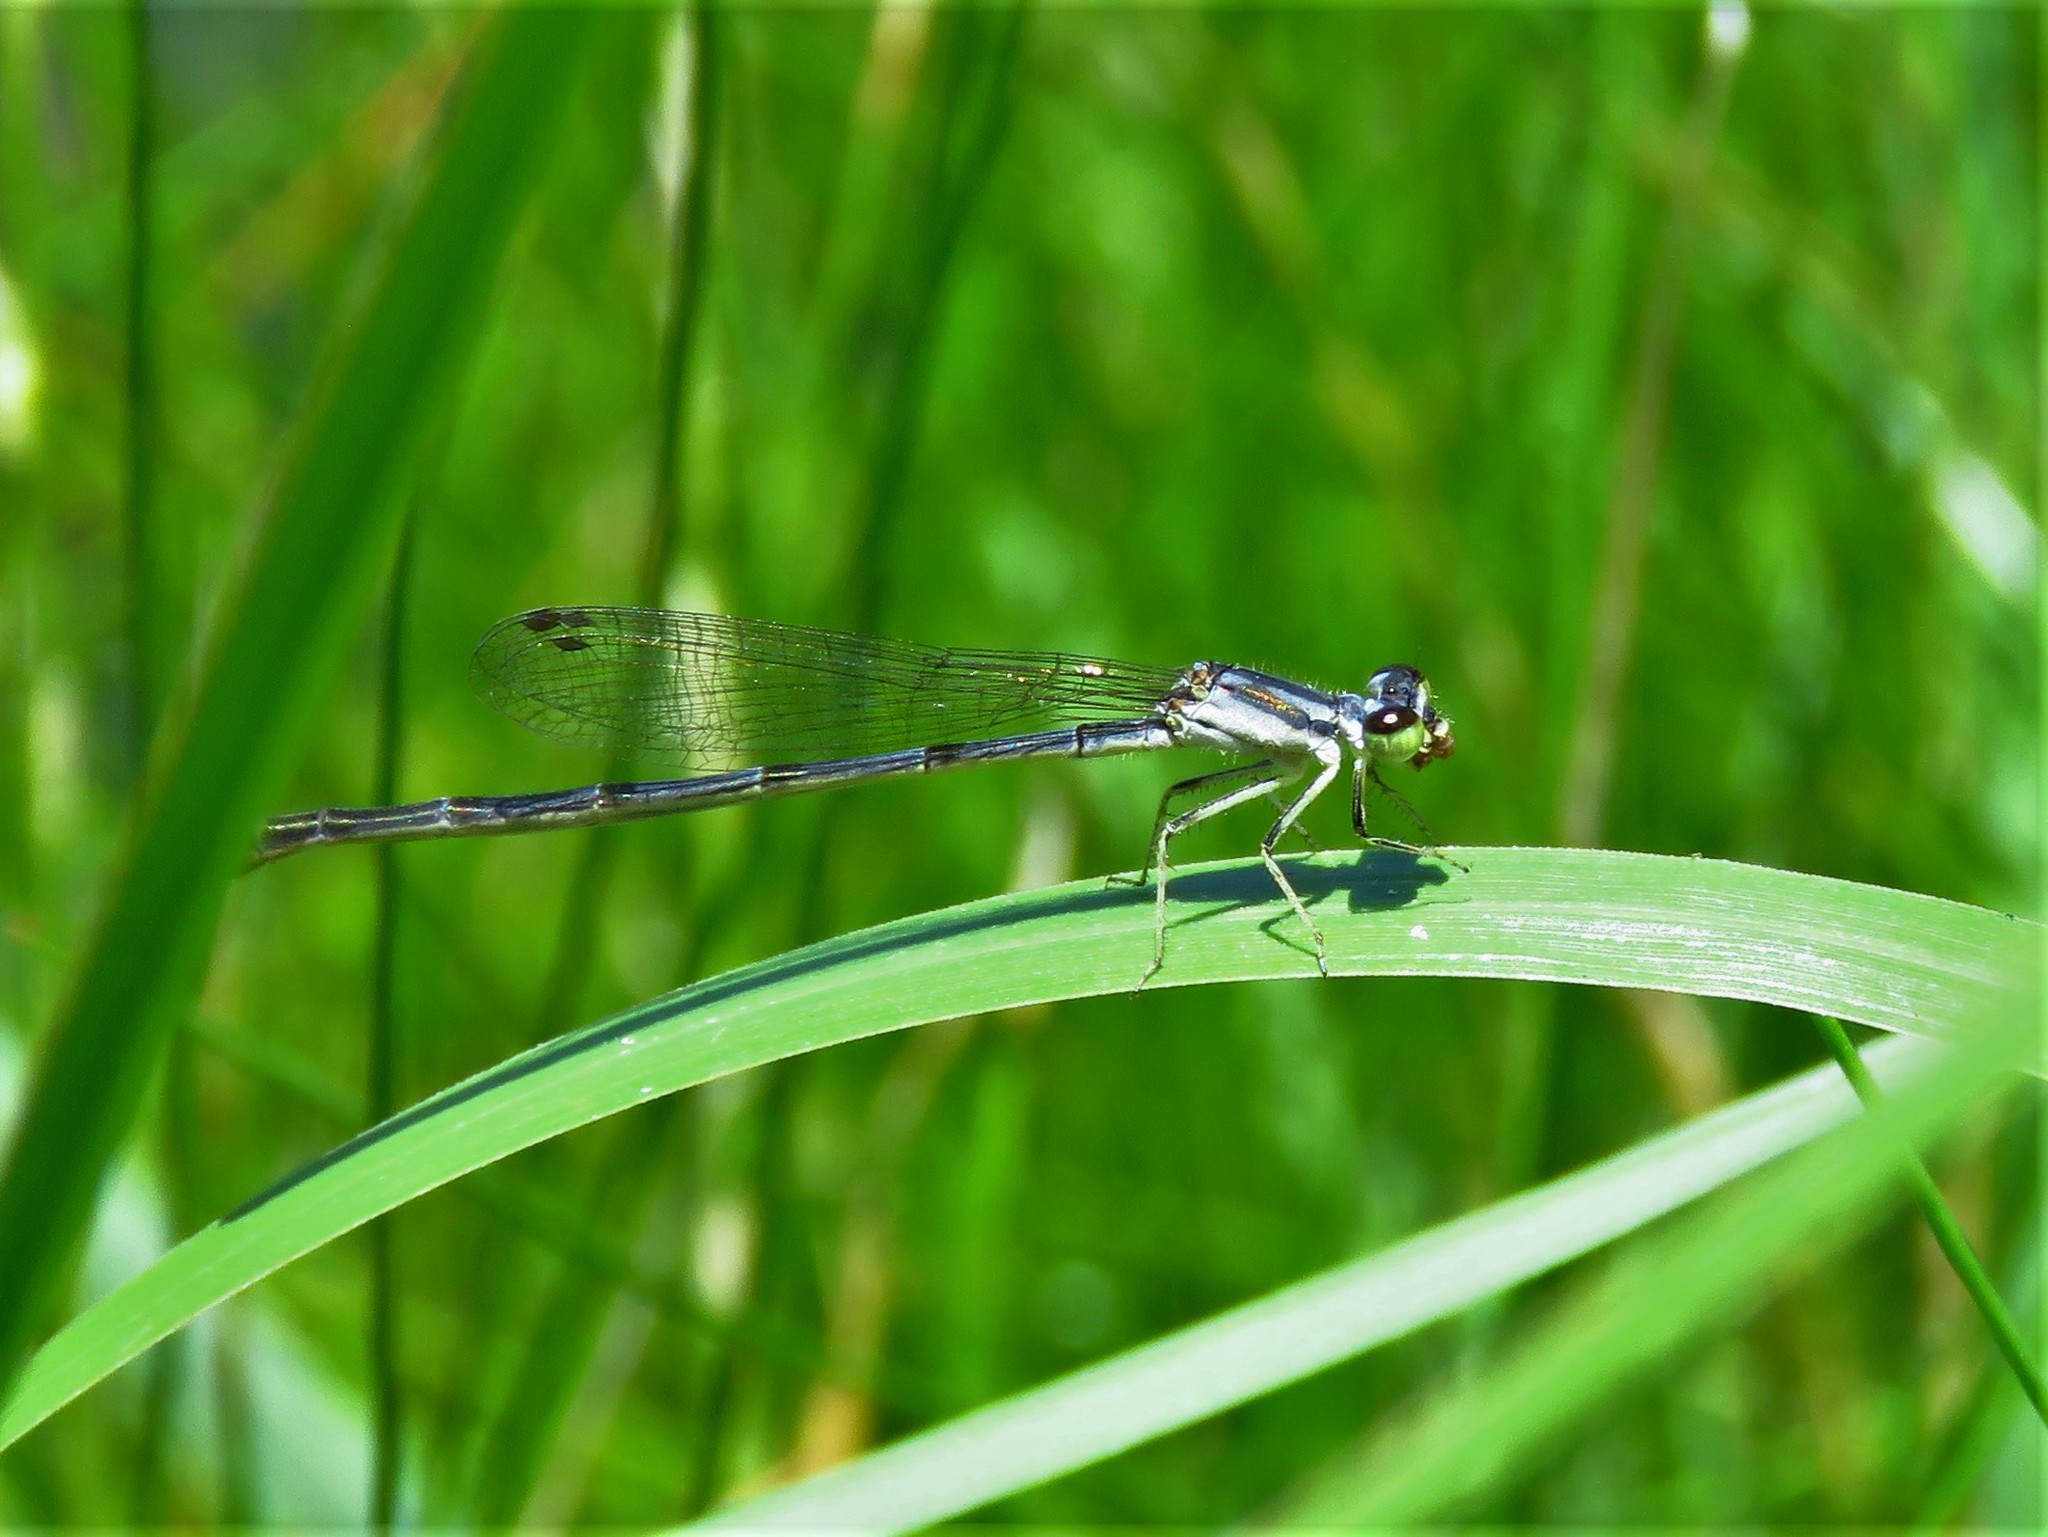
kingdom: Animalia
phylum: Arthropoda
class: Insecta
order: Odonata
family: Coenagrionidae
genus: Ischnura
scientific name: Ischnura posita
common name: Fragile forktail
